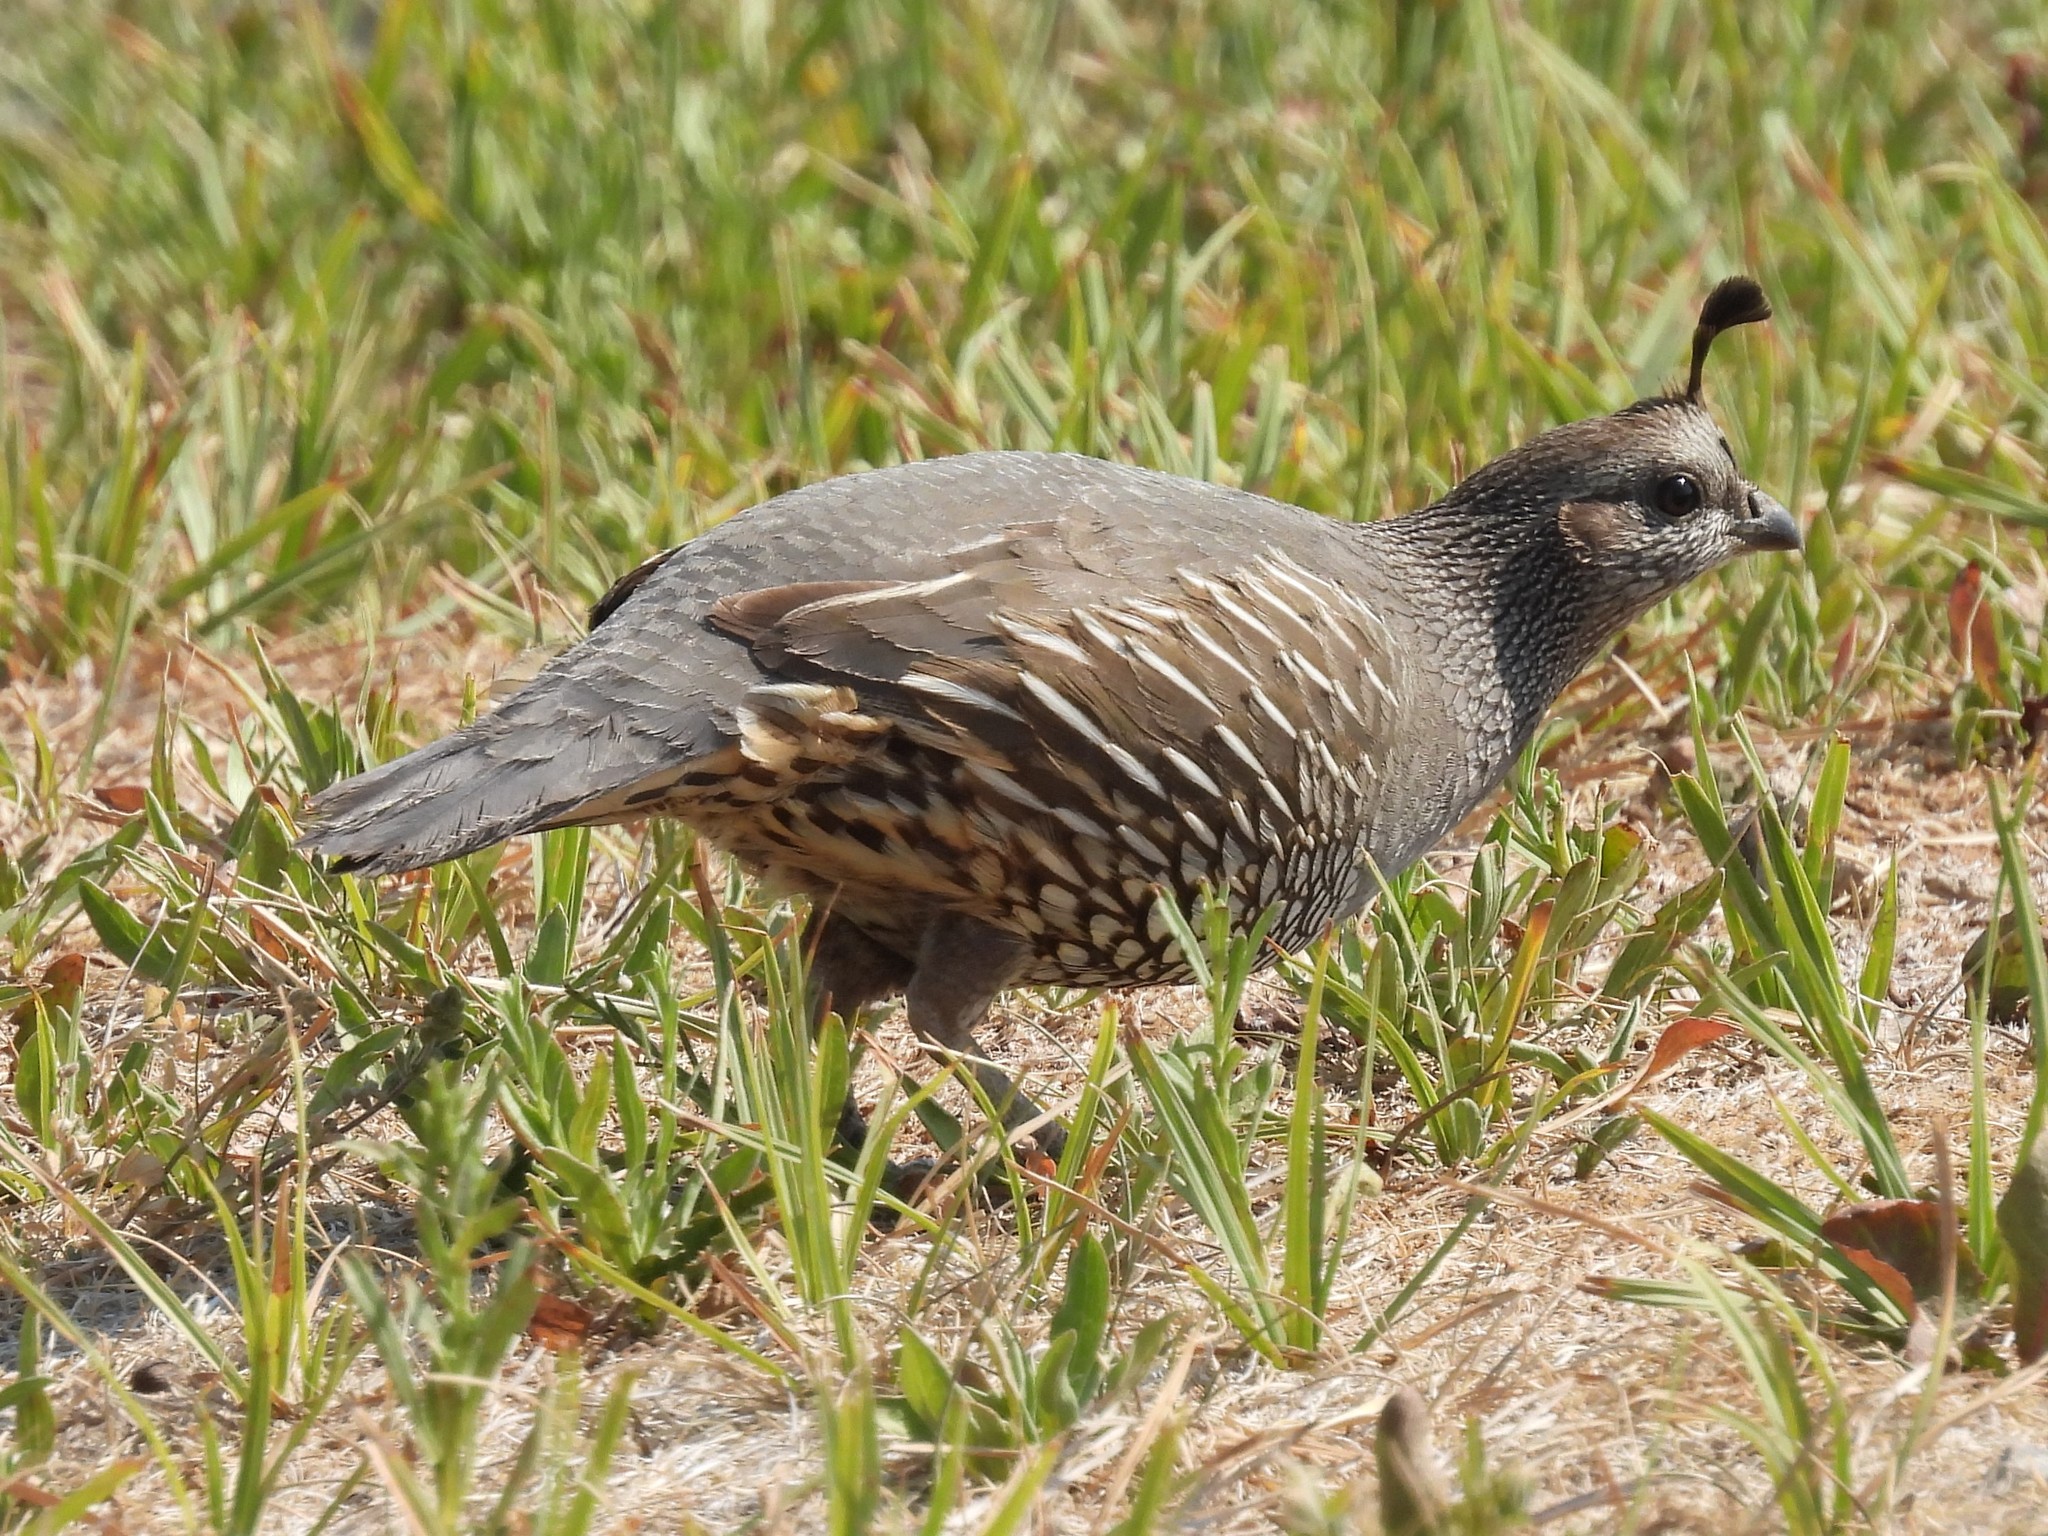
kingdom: Animalia
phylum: Chordata
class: Aves
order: Galliformes
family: Odontophoridae
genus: Callipepla
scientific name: Callipepla californica
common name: California quail
